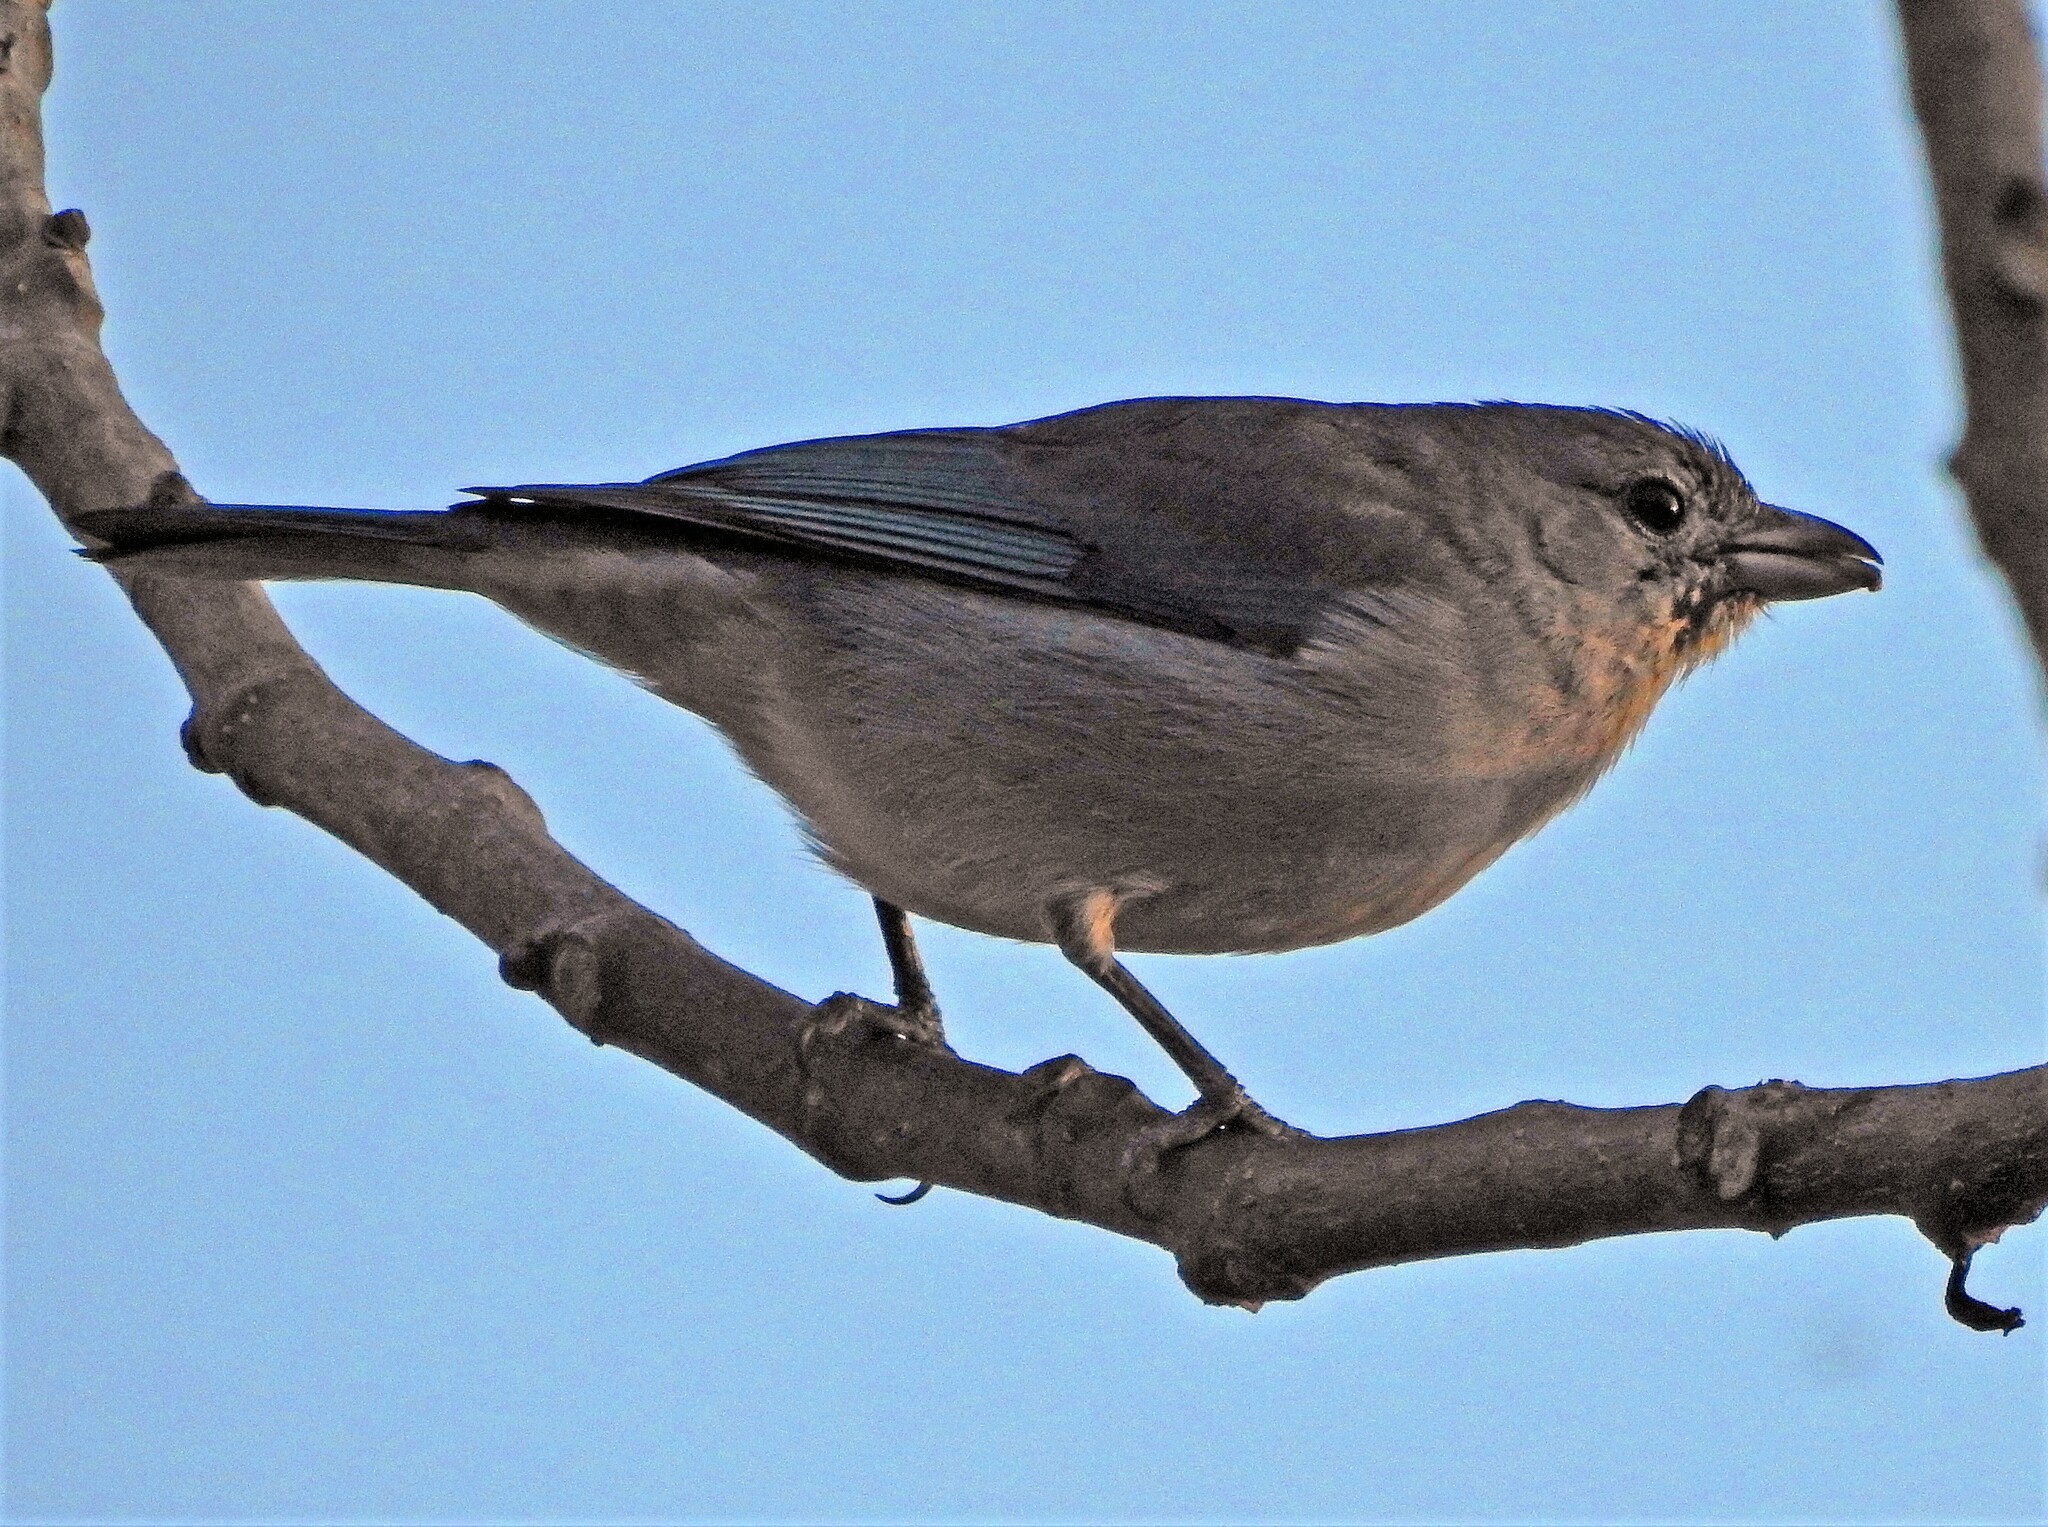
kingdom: Animalia
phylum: Chordata
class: Aves
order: Passeriformes
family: Thraupidae
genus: Thraupis
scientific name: Thraupis sayaca
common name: Sayaca tanager
